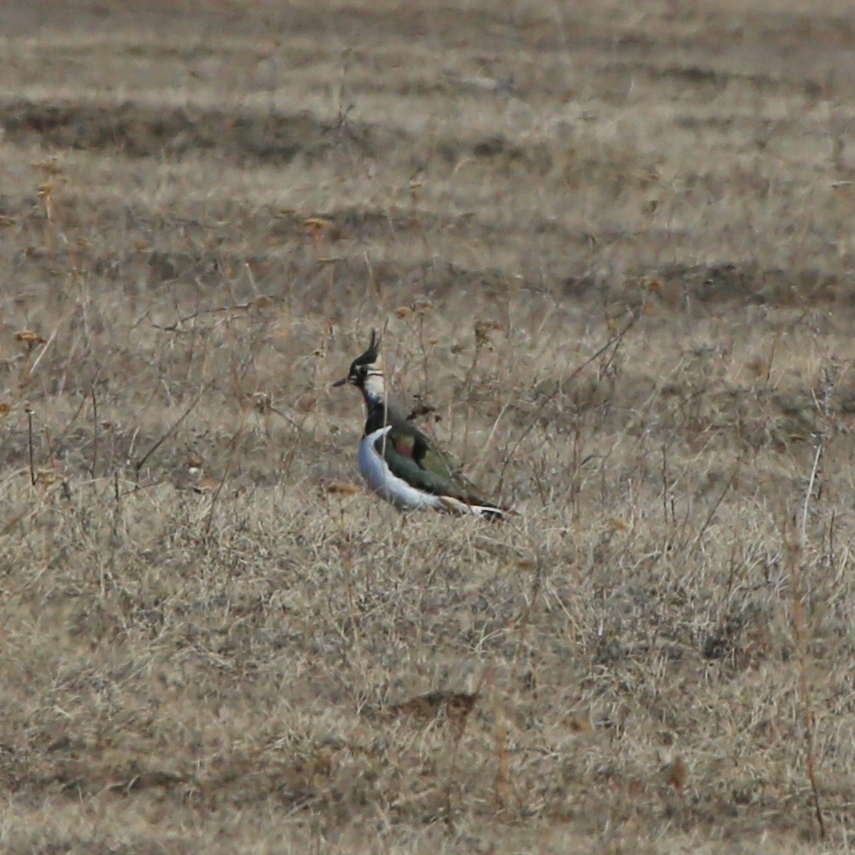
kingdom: Animalia
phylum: Chordata
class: Aves
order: Charadriiformes
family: Charadriidae
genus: Vanellus
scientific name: Vanellus vanellus
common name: Northern lapwing
